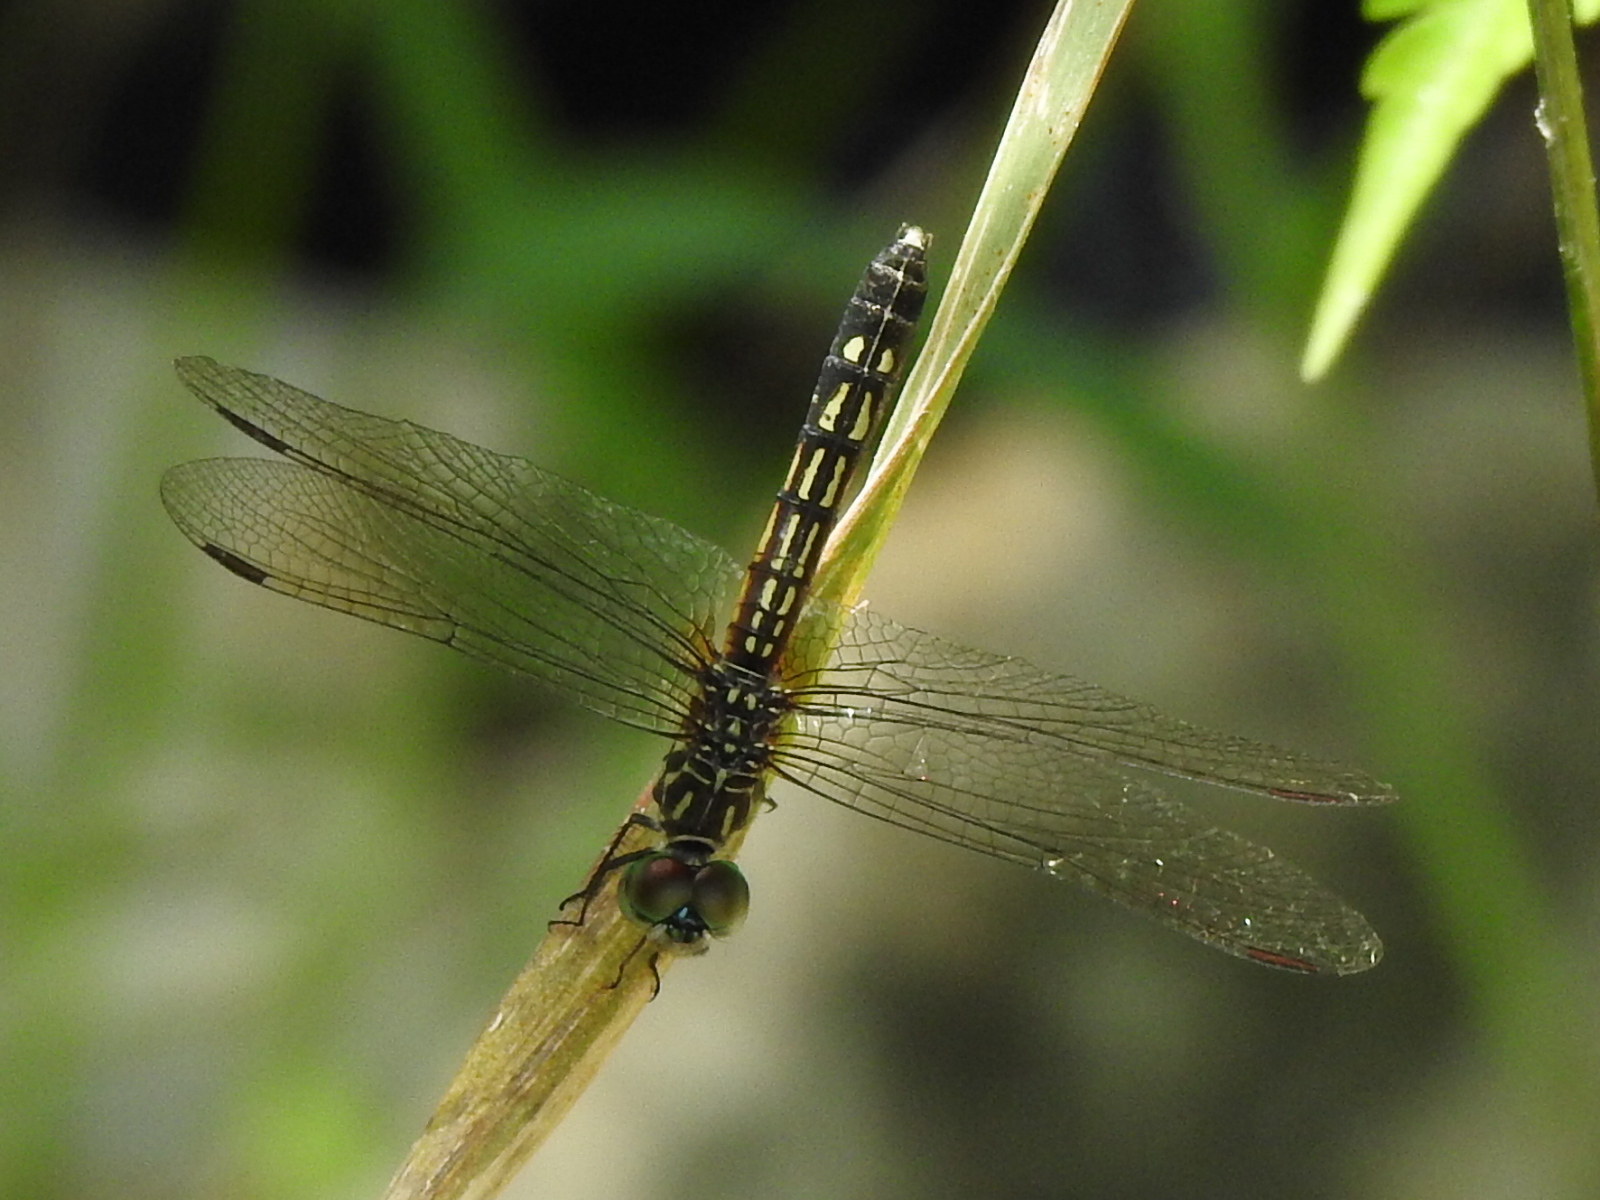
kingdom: Animalia
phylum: Arthropoda
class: Insecta
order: Odonata
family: Libellulidae
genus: Pachydiplax
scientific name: Pachydiplax longipennis
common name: Blue dasher
